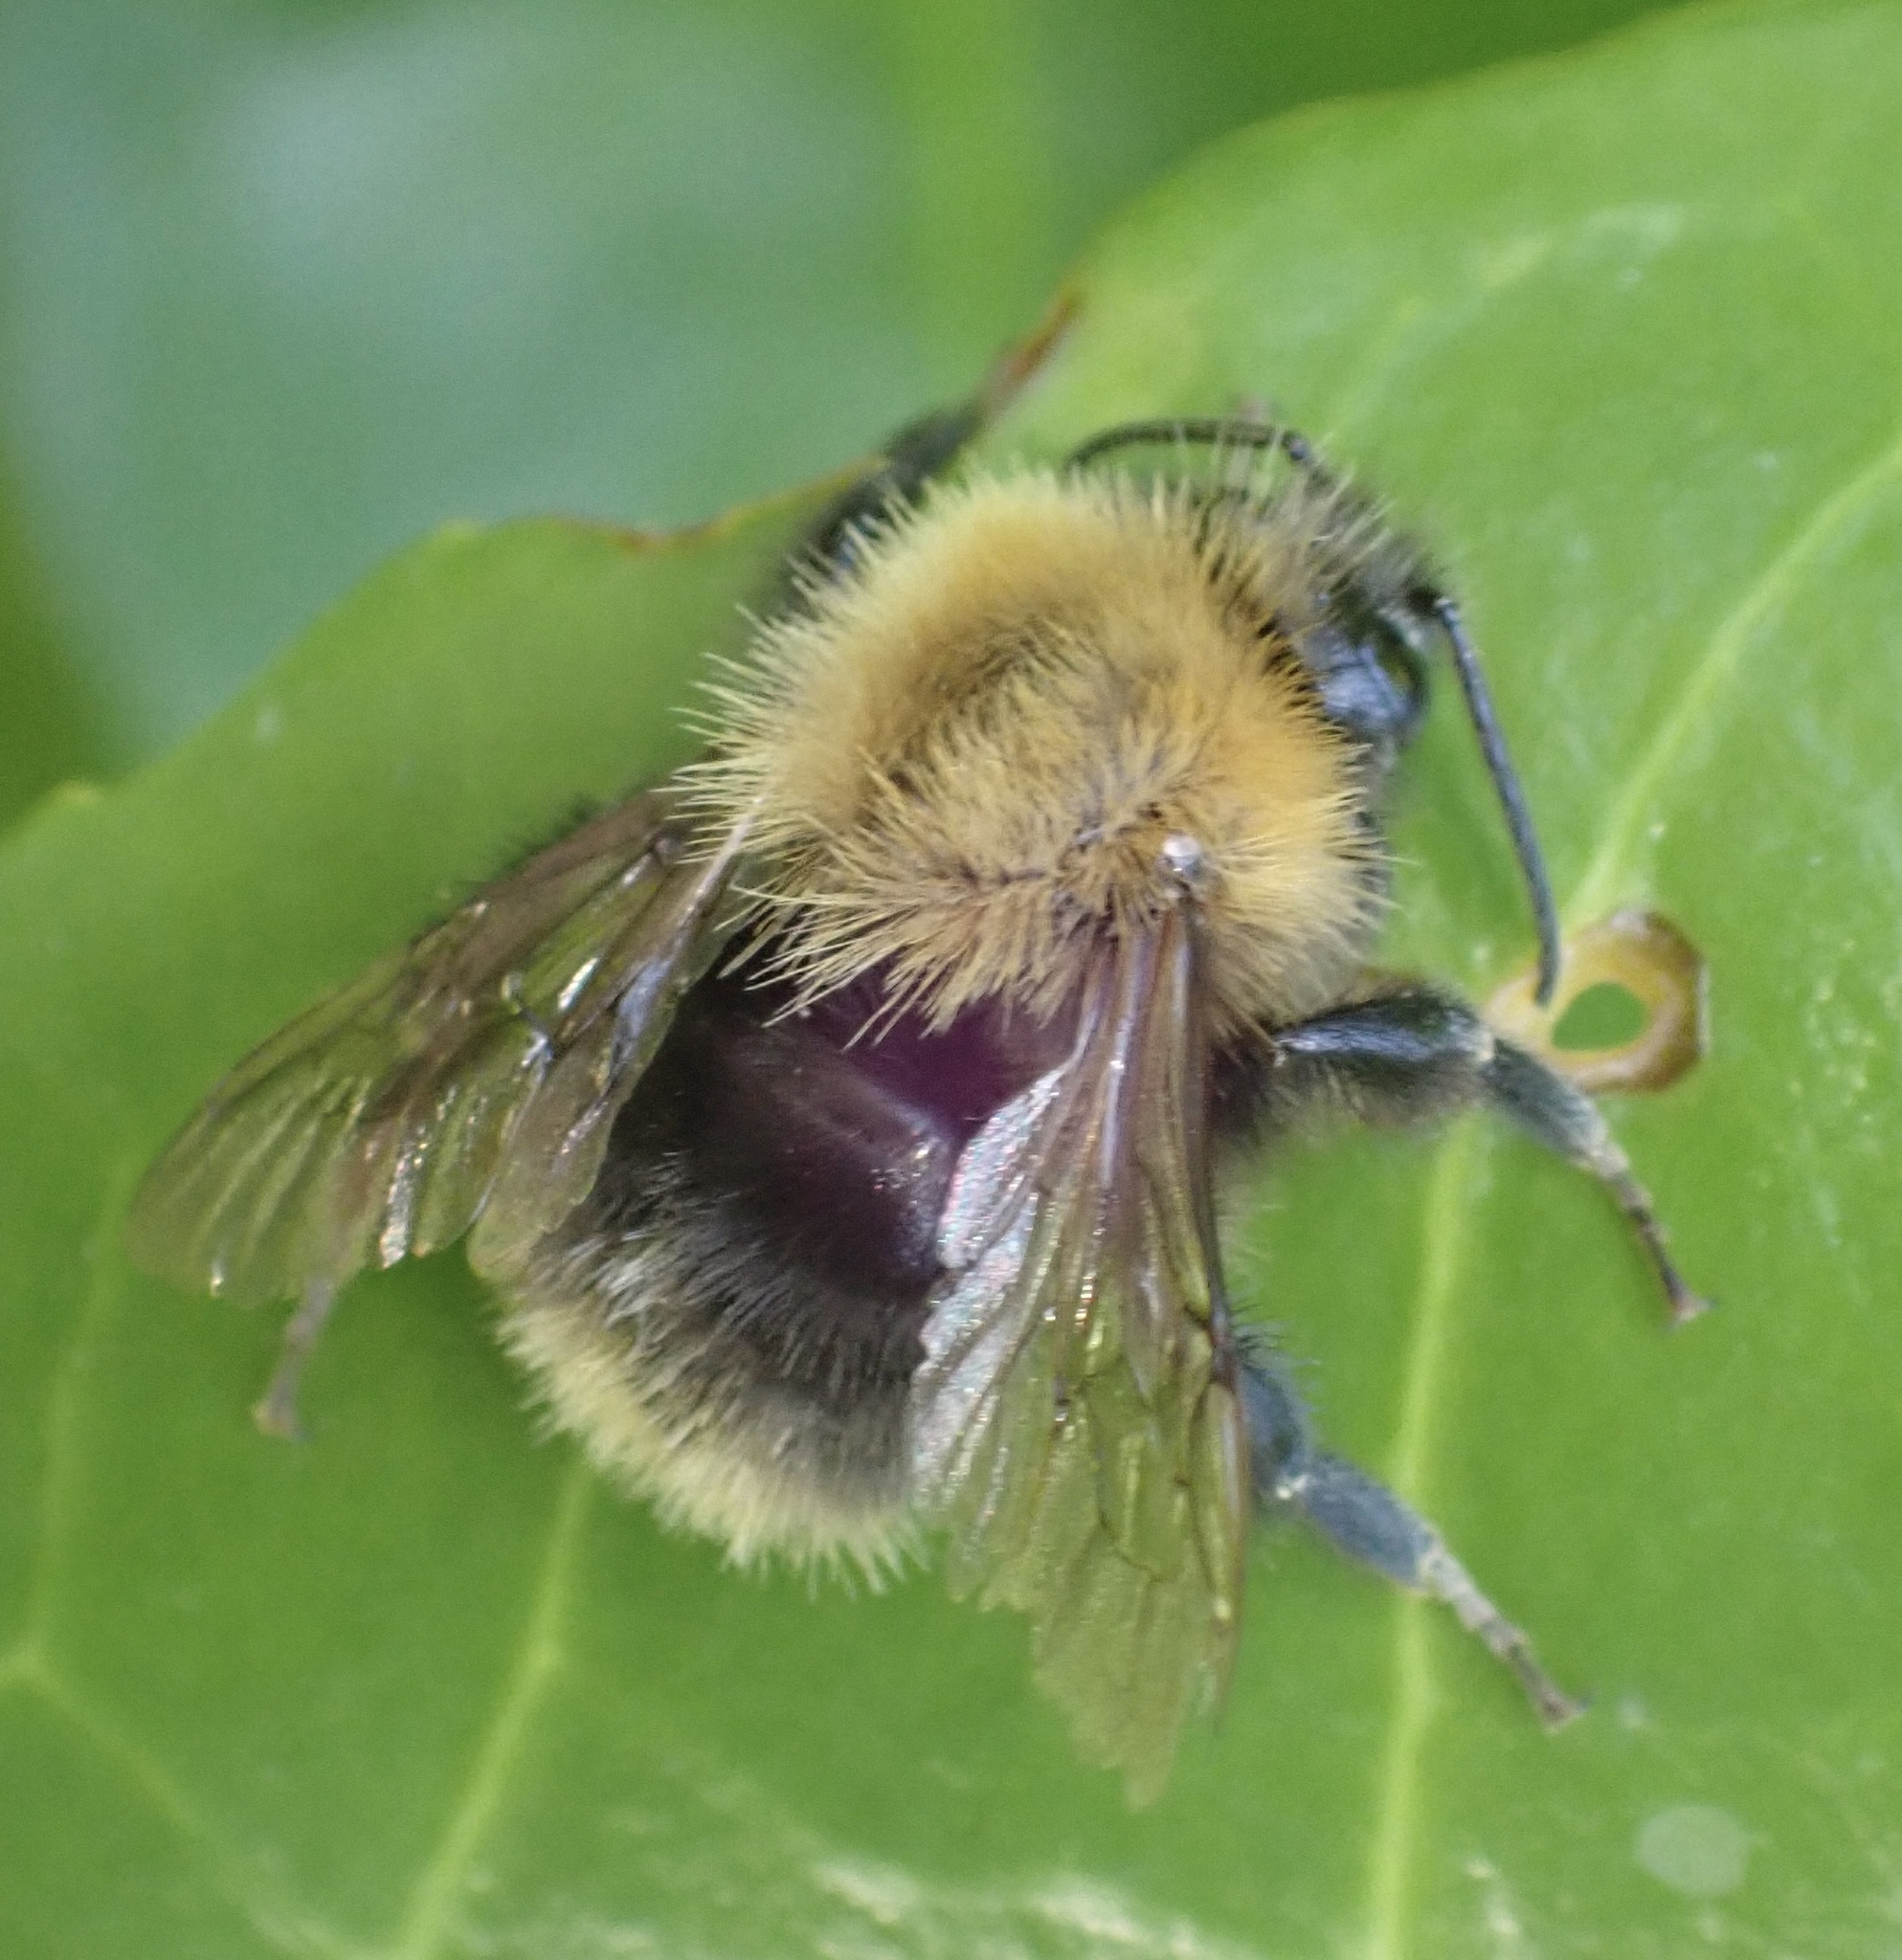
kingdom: Animalia
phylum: Arthropoda
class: Insecta
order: Hymenoptera
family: Apidae
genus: Bombus
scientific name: Bombus pascuorum
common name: Common carder bee
